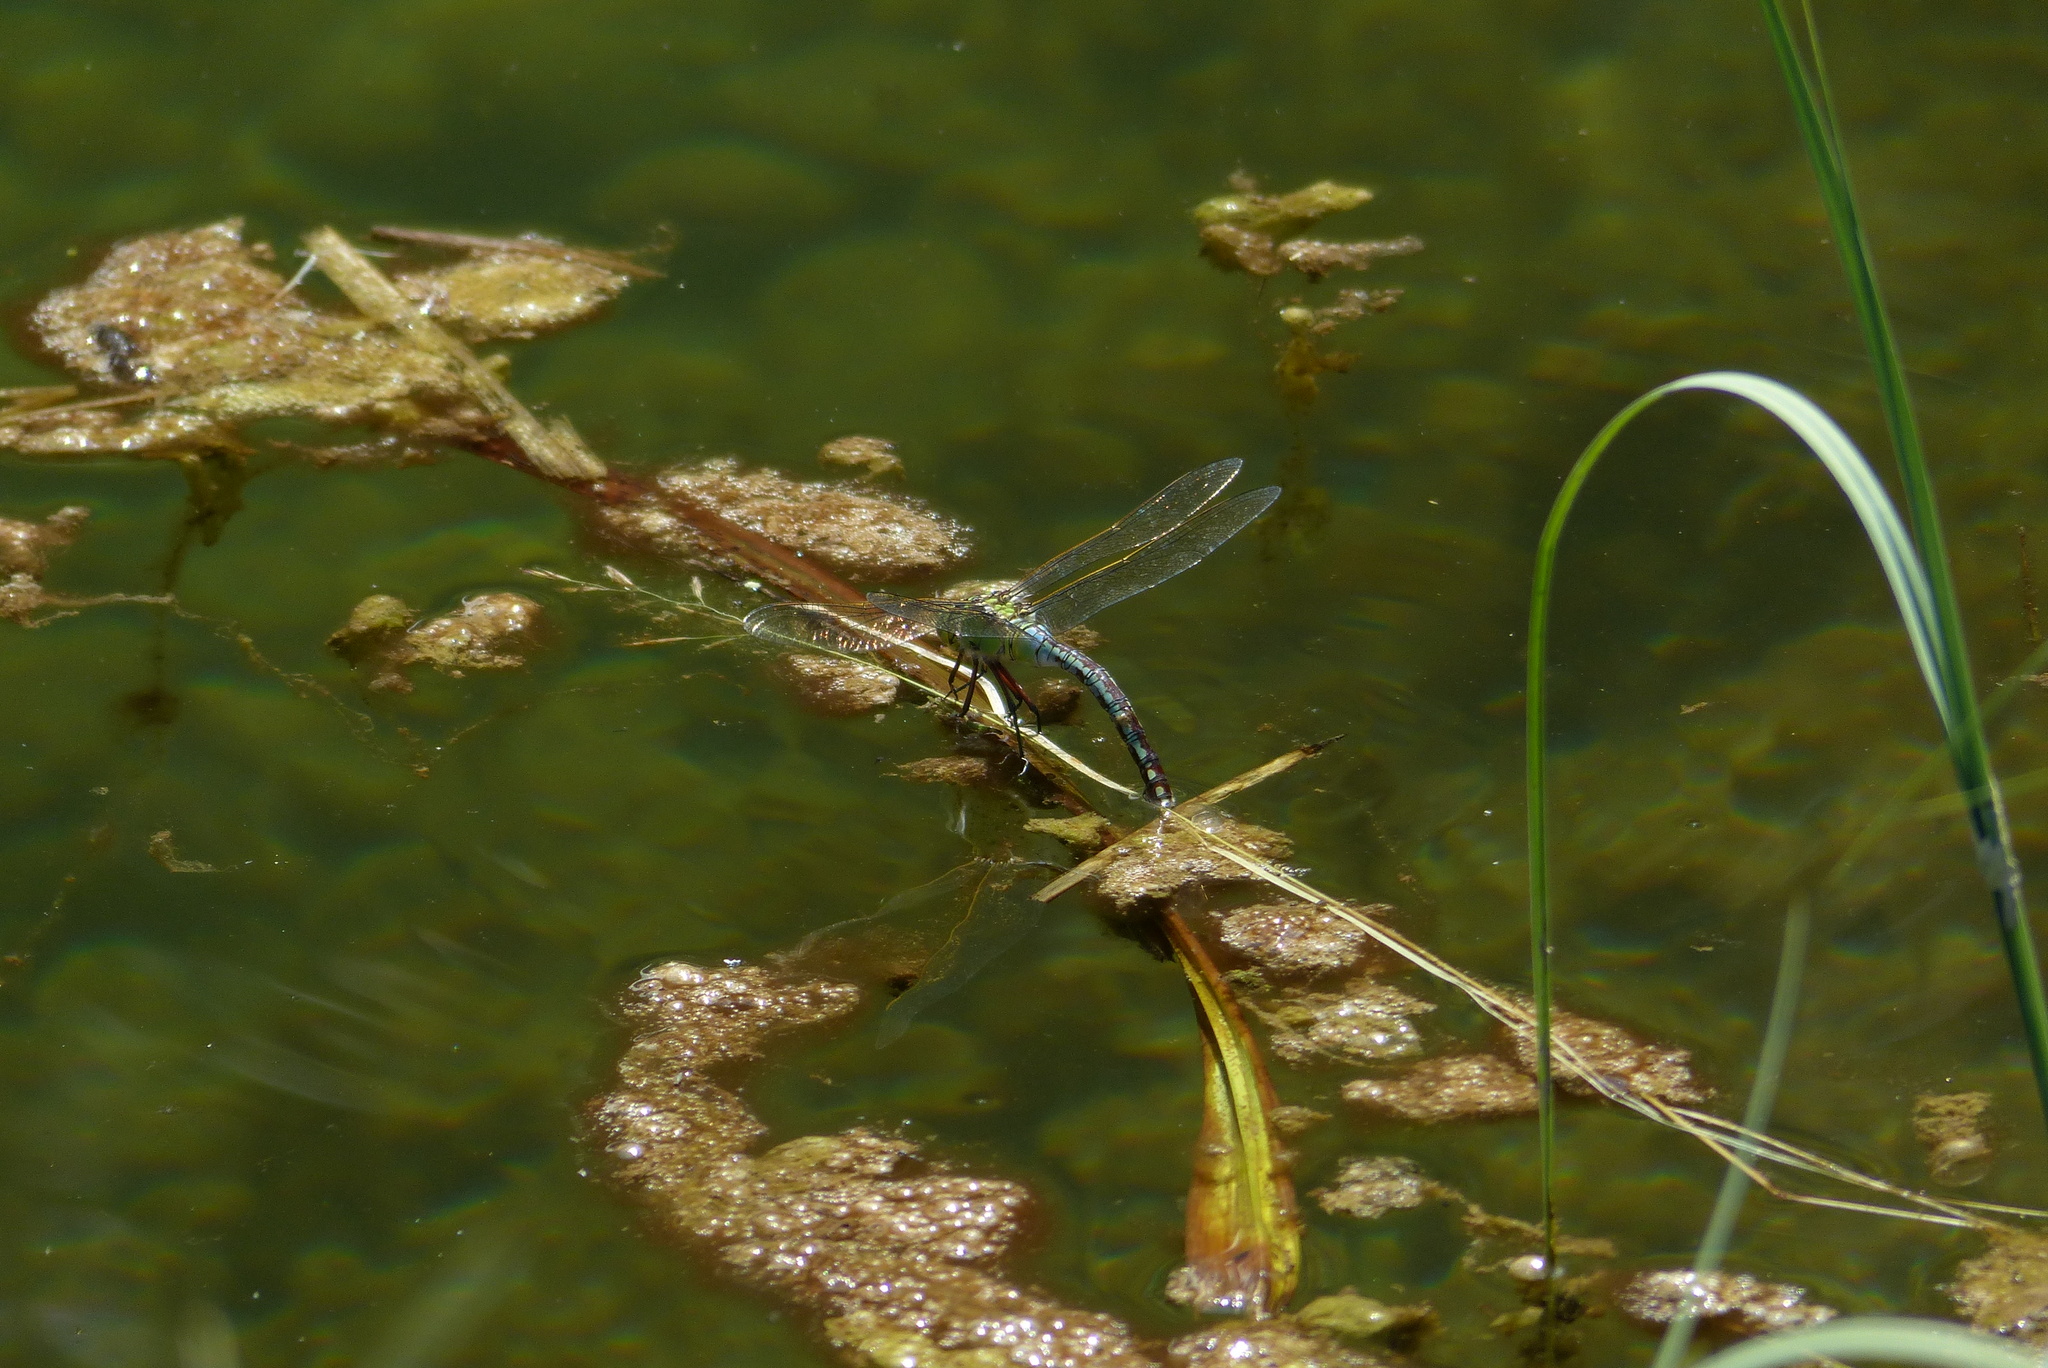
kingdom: Animalia
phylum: Arthropoda
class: Insecta
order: Odonata
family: Aeshnidae
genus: Anax
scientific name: Anax imperator
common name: Emperor dragonfly
